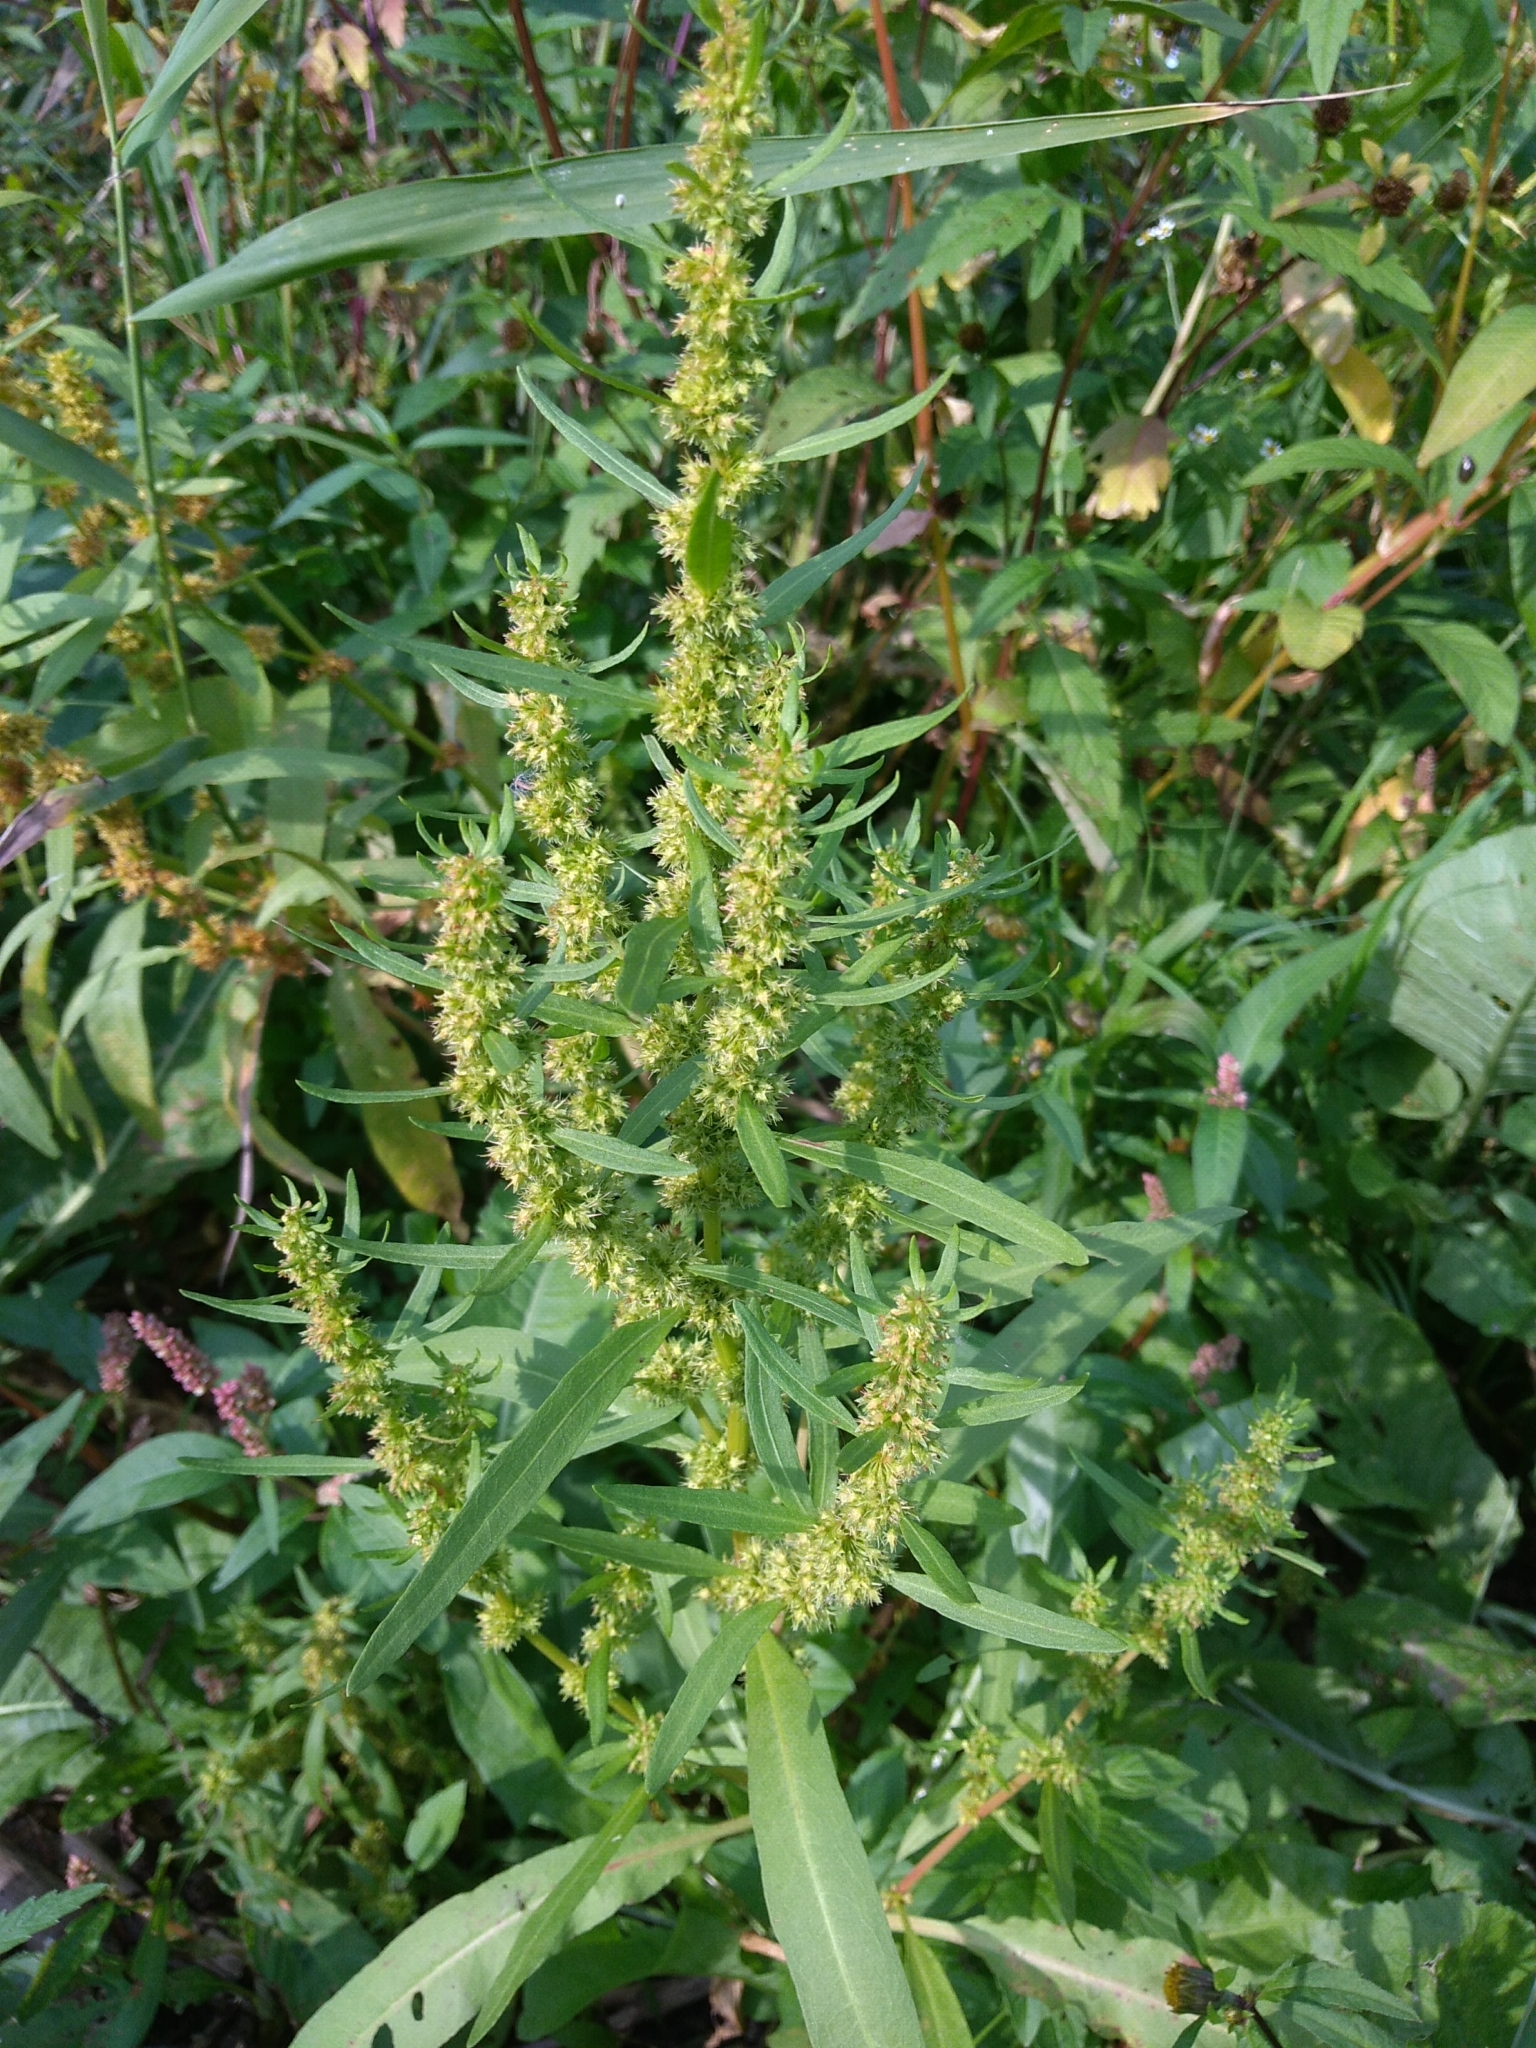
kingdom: Plantae
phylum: Tracheophyta
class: Magnoliopsida
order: Caryophyllales
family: Polygonaceae
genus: Rumex
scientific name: Rumex maritimus
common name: Golden dock
